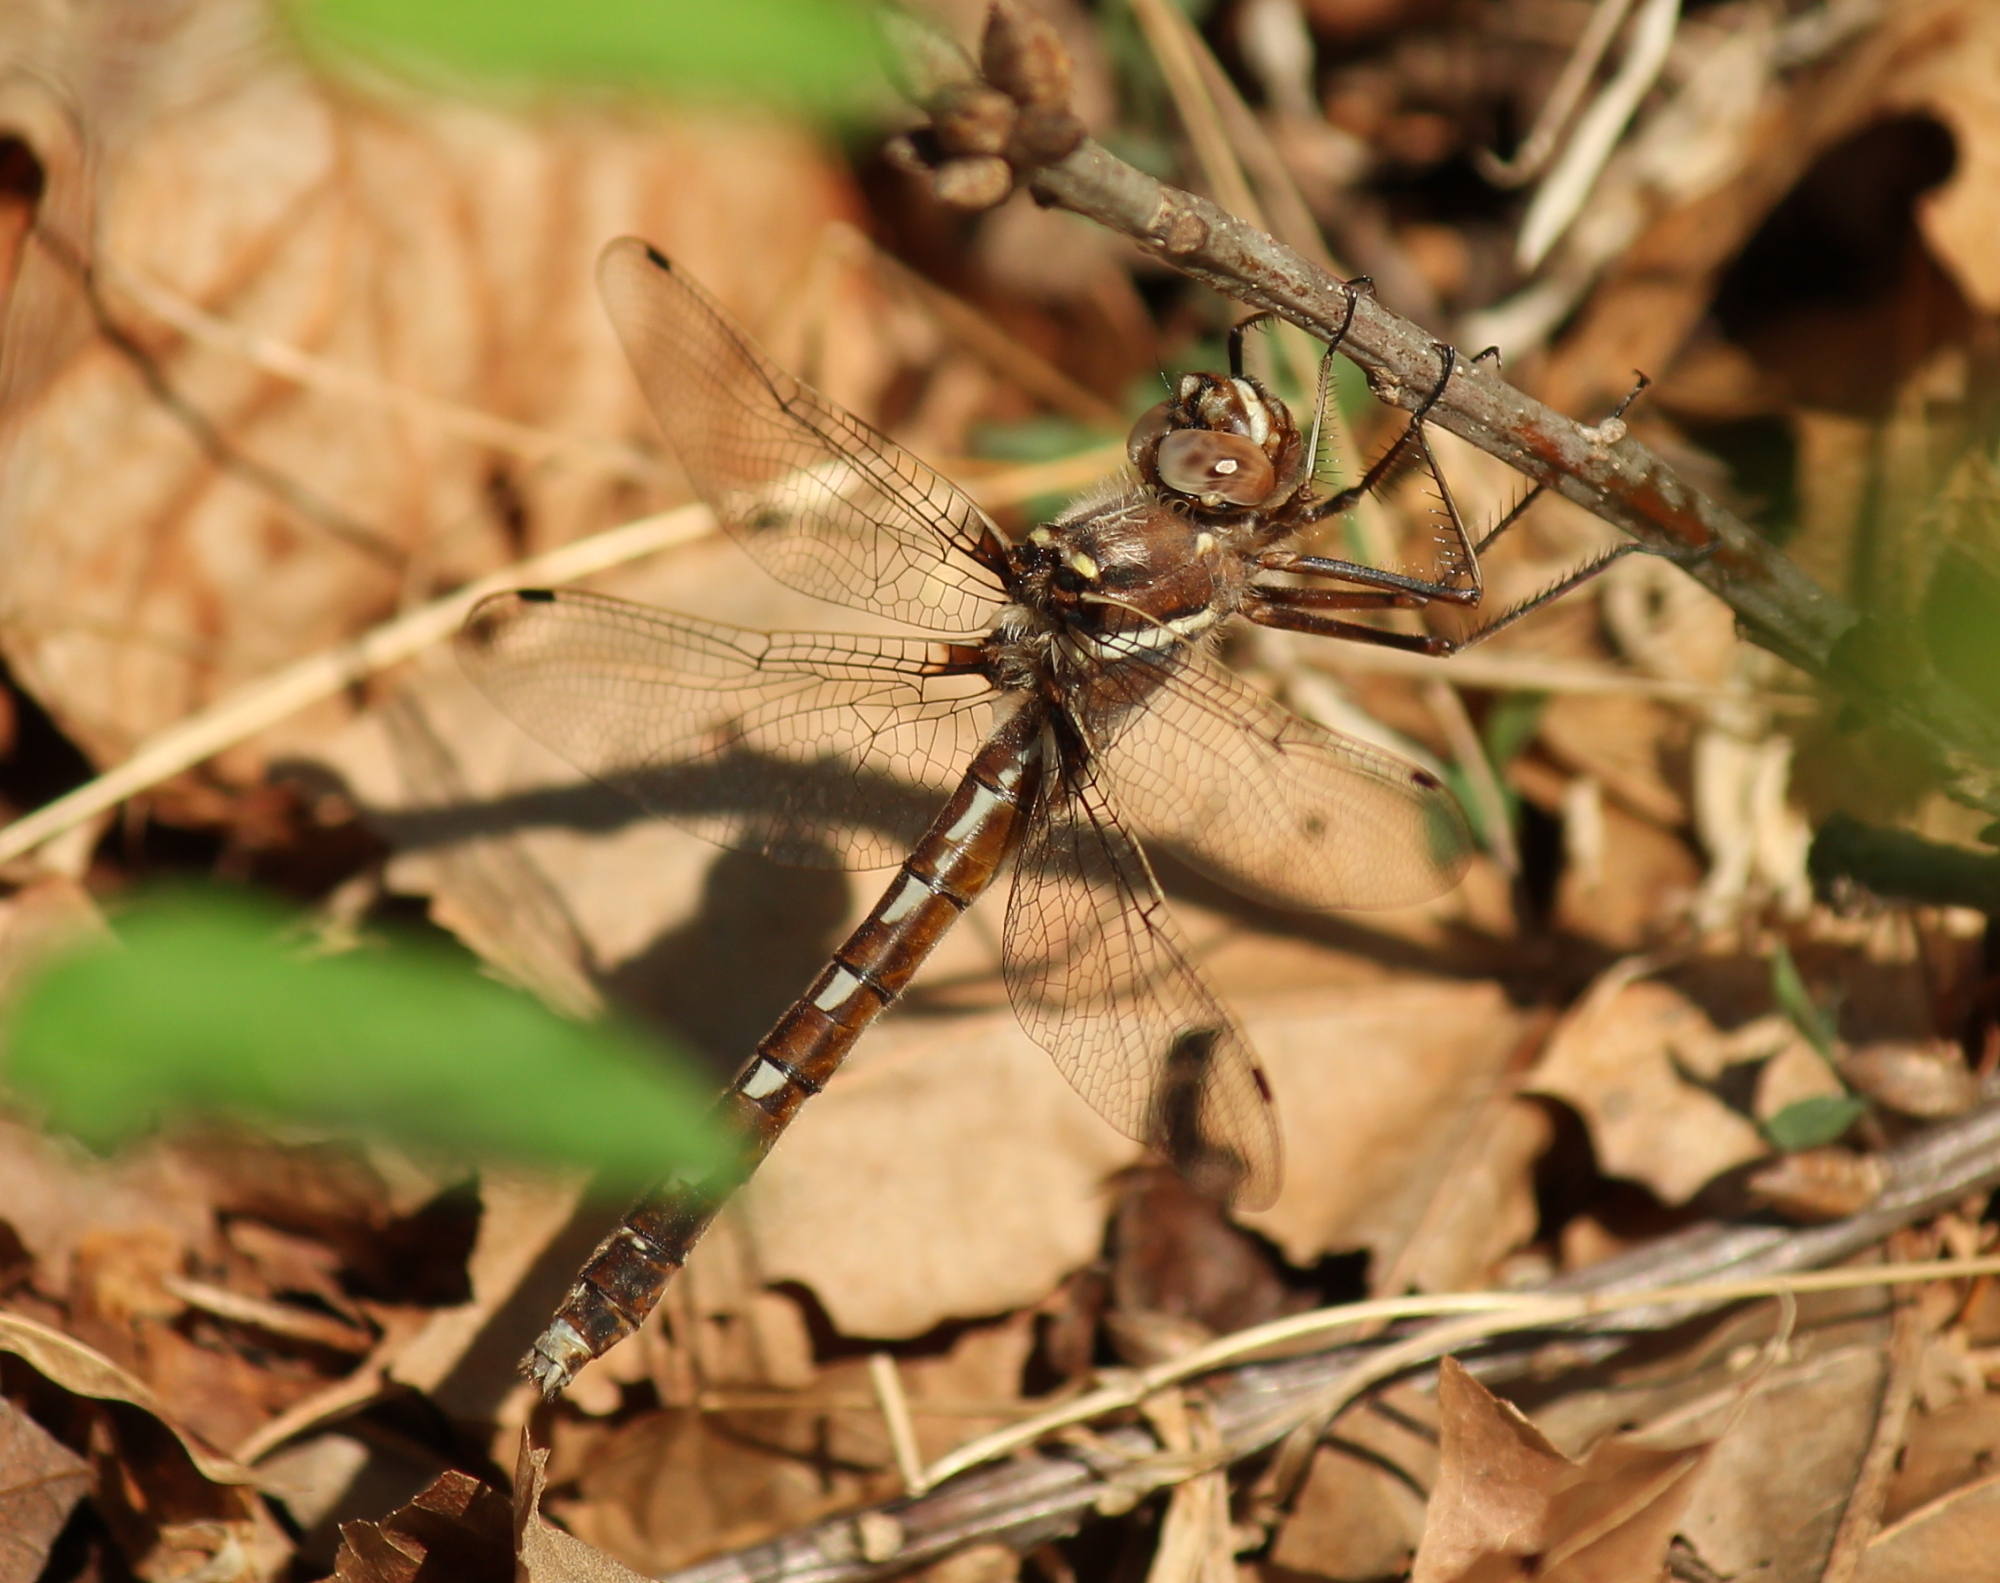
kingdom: Animalia
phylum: Arthropoda
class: Insecta
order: Odonata
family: Macromiidae
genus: Didymops
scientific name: Didymops transversa
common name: Stream cruiser
